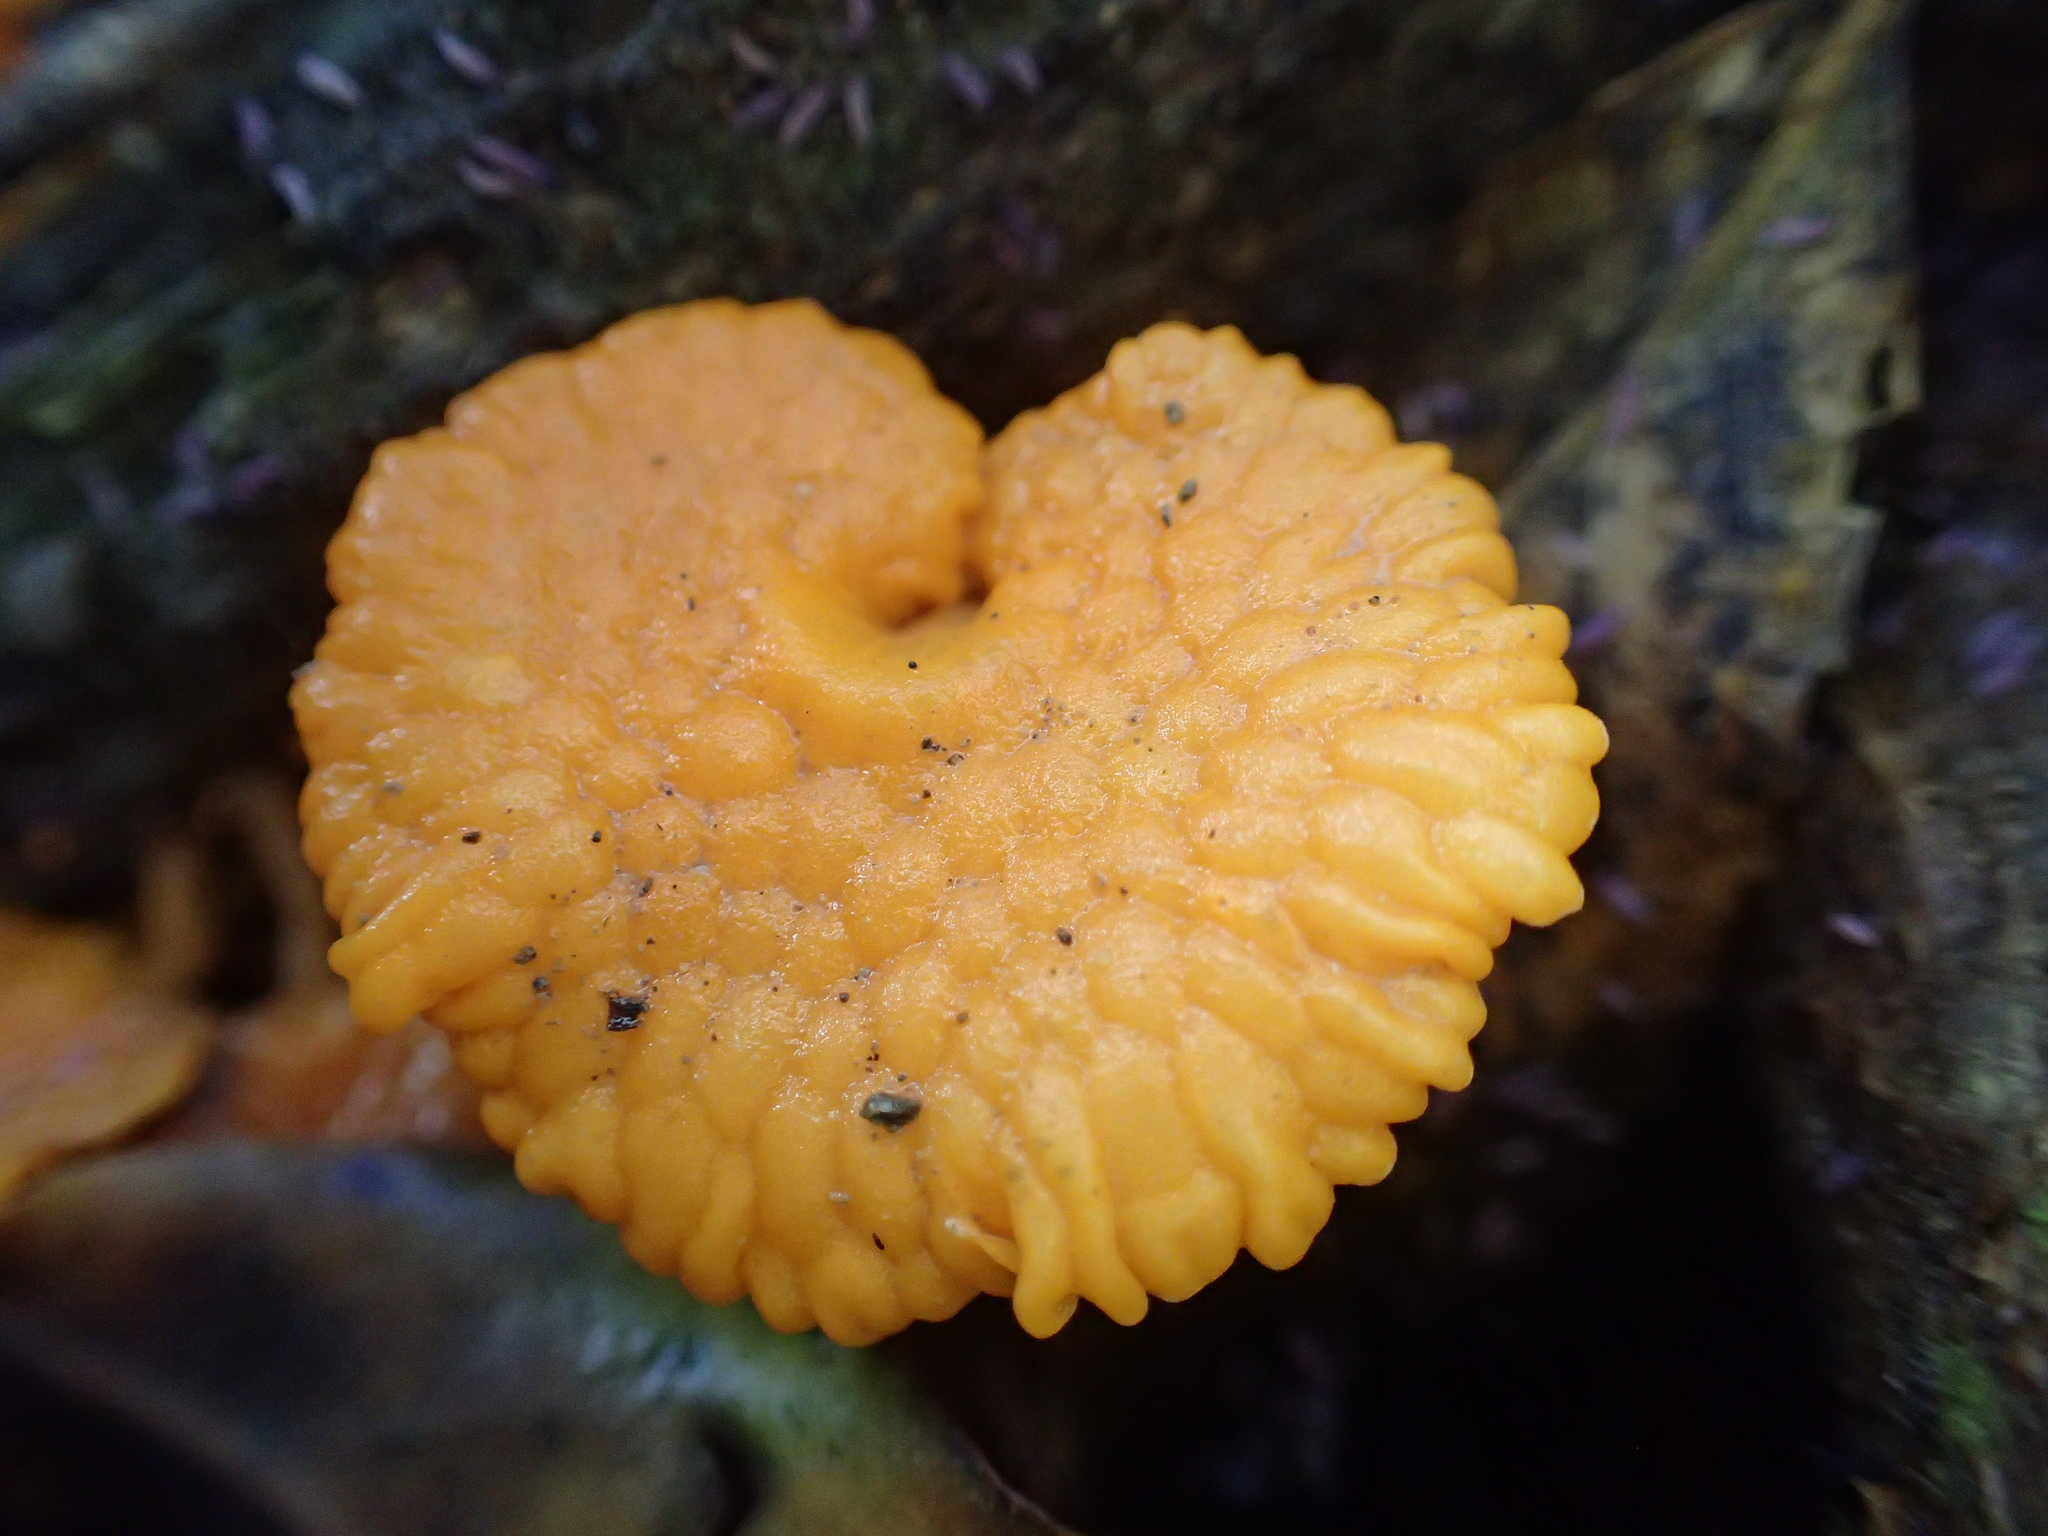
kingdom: Fungi
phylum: Basidiomycota
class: Agaricomycetes
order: Agaricales
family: Mycenaceae
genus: Favolaschia
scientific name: Favolaschia claudopus
